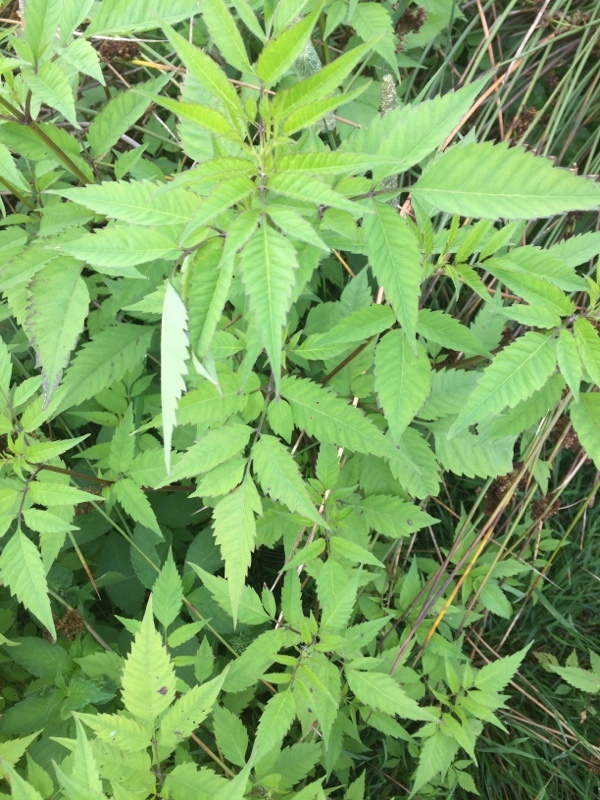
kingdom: Plantae
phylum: Tracheophyta
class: Magnoliopsida
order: Asterales
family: Asteraceae
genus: Bidens
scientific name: Bidens frondosa
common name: Beggarticks
